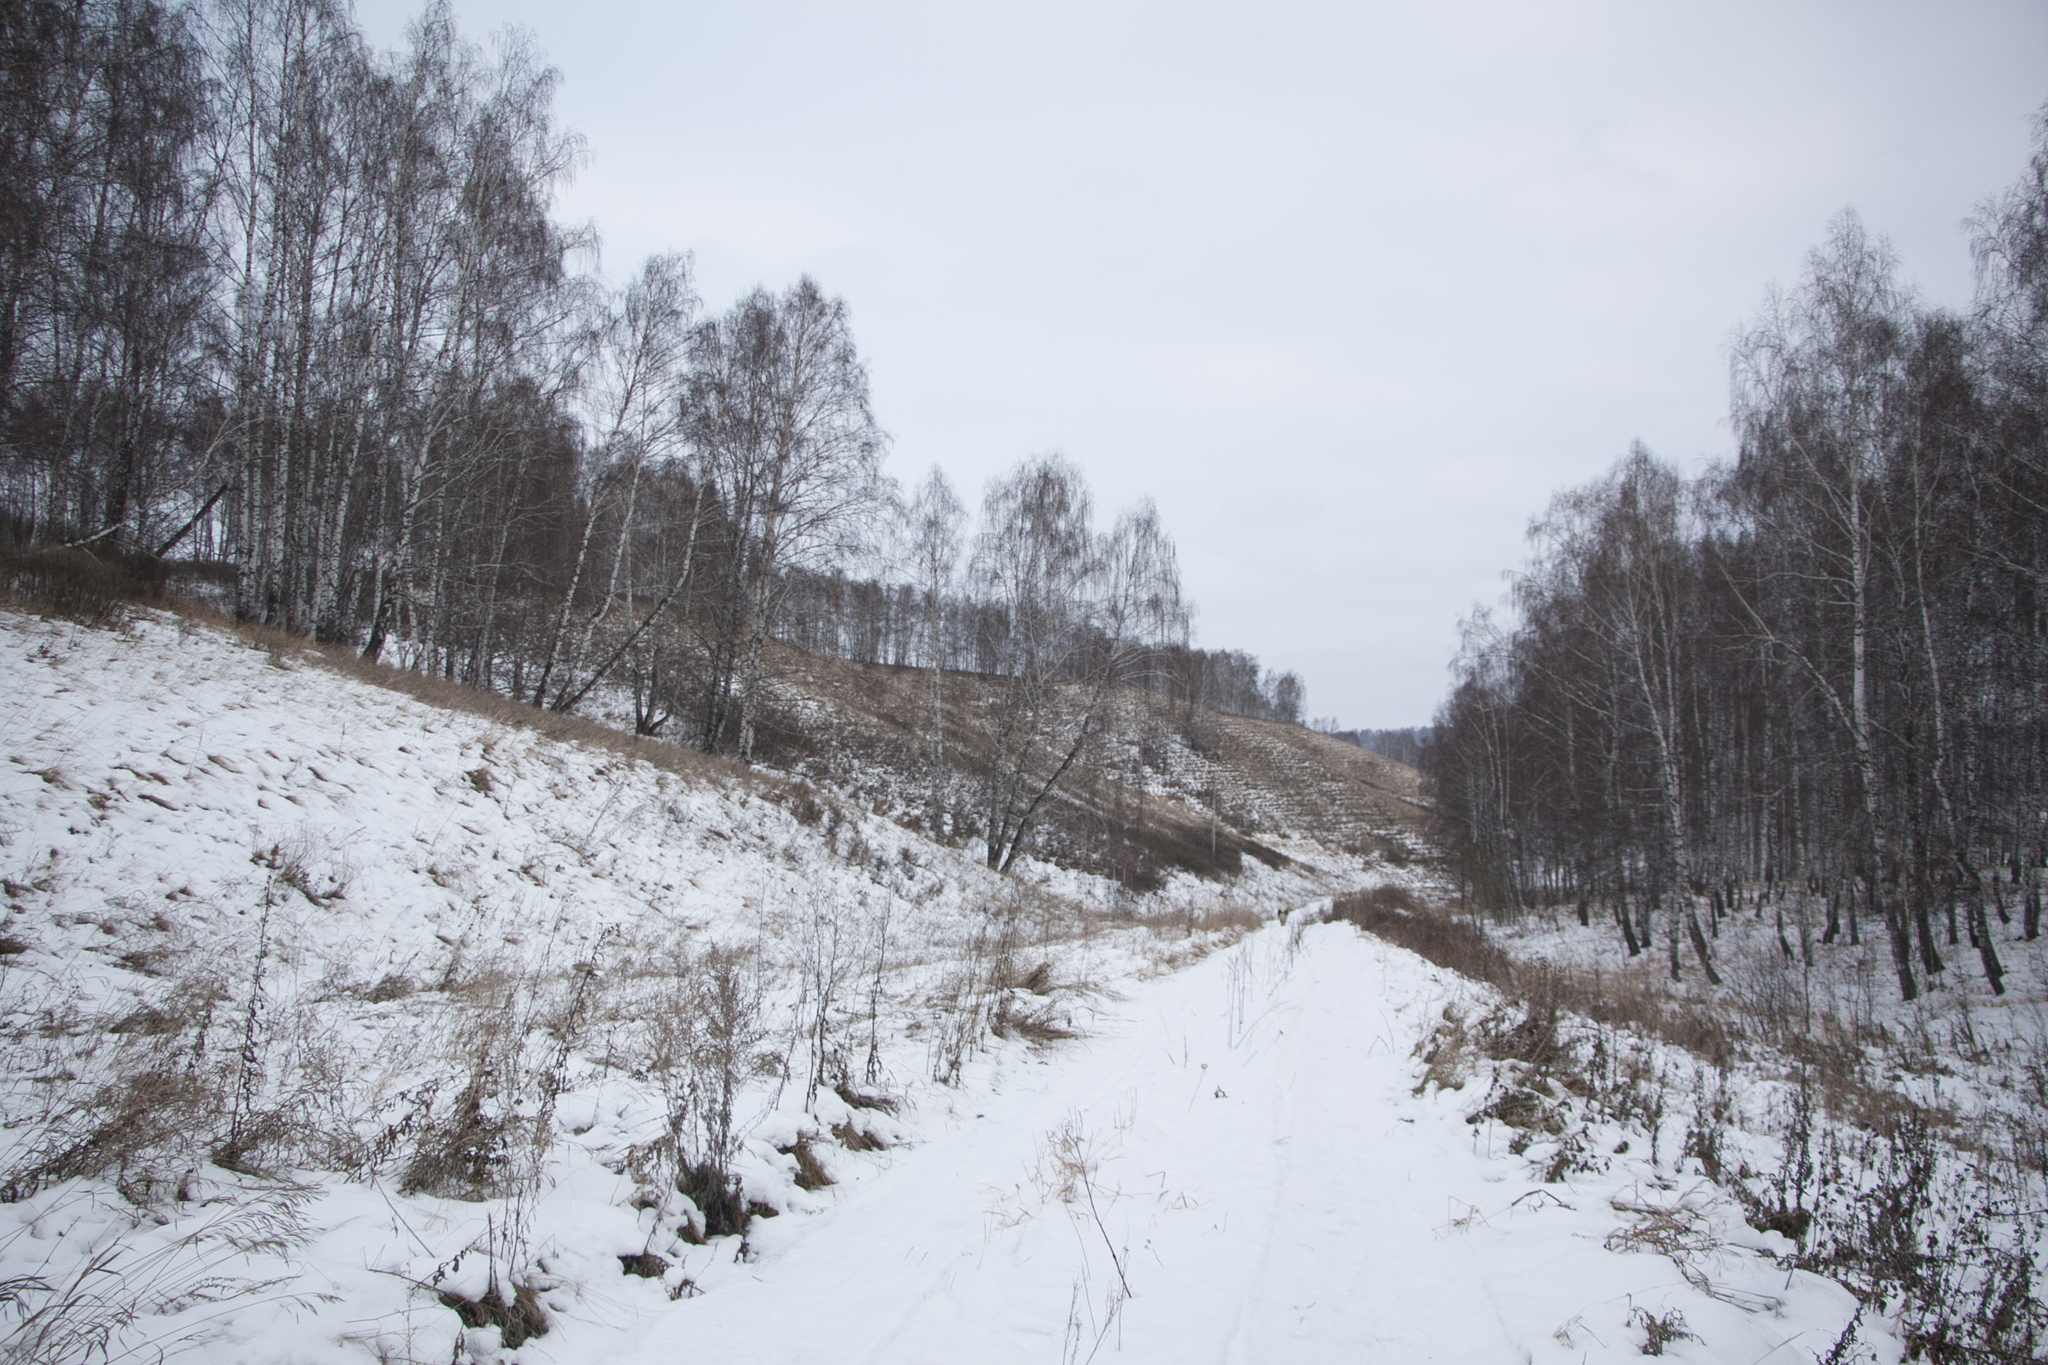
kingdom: Plantae
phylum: Tracheophyta
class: Magnoliopsida
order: Fagales
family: Betulaceae
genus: Betula
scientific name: Betula pendula
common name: Silver birch
